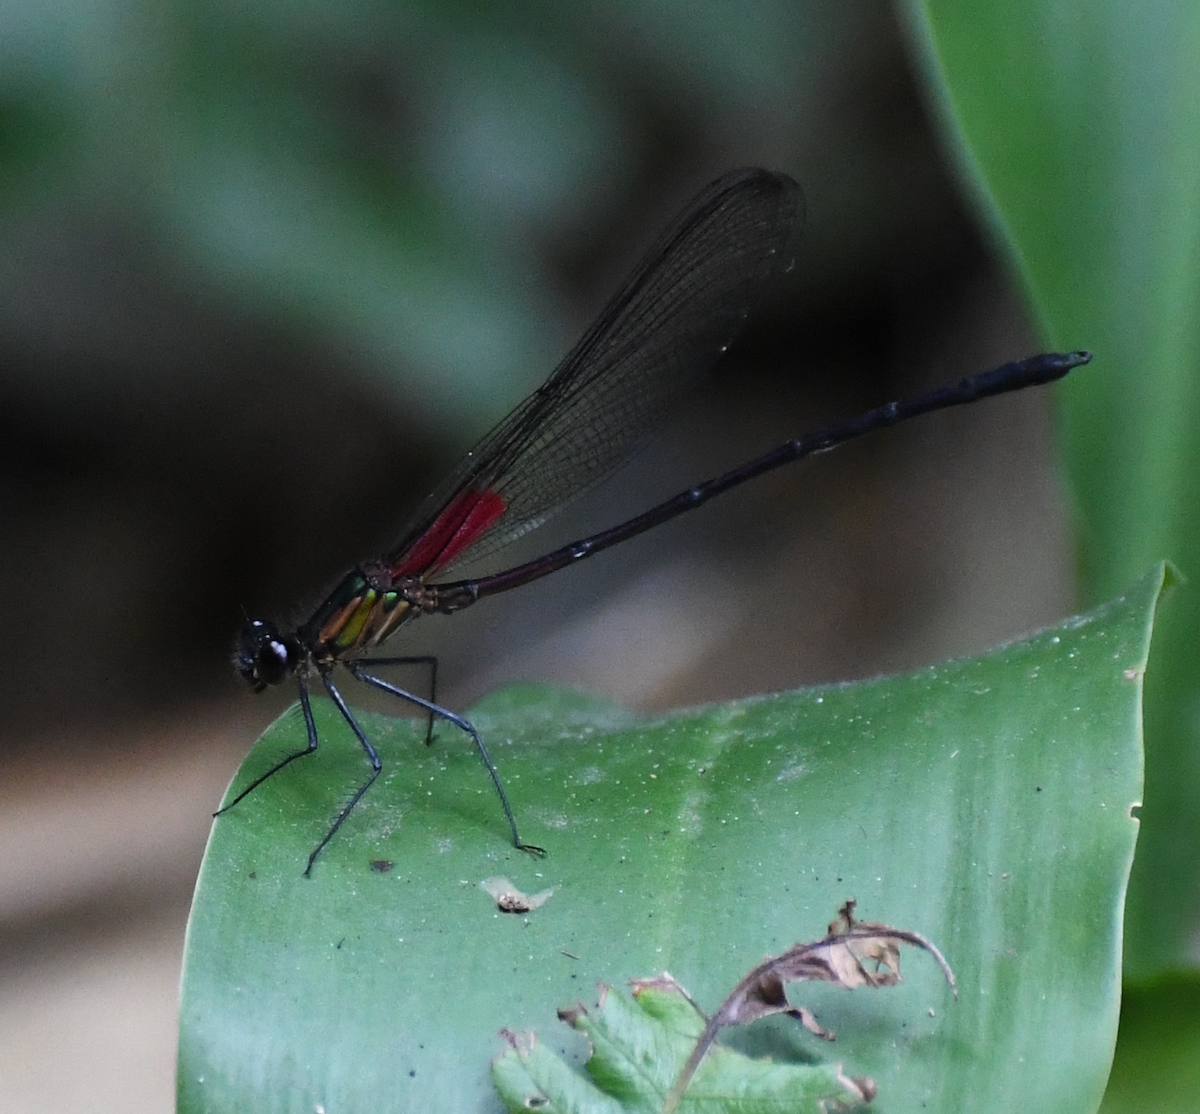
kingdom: Animalia
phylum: Arthropoda
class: Insecta
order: Odonata
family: Calopterygidae
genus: Hetaerina
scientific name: Hetaerina capitalis
